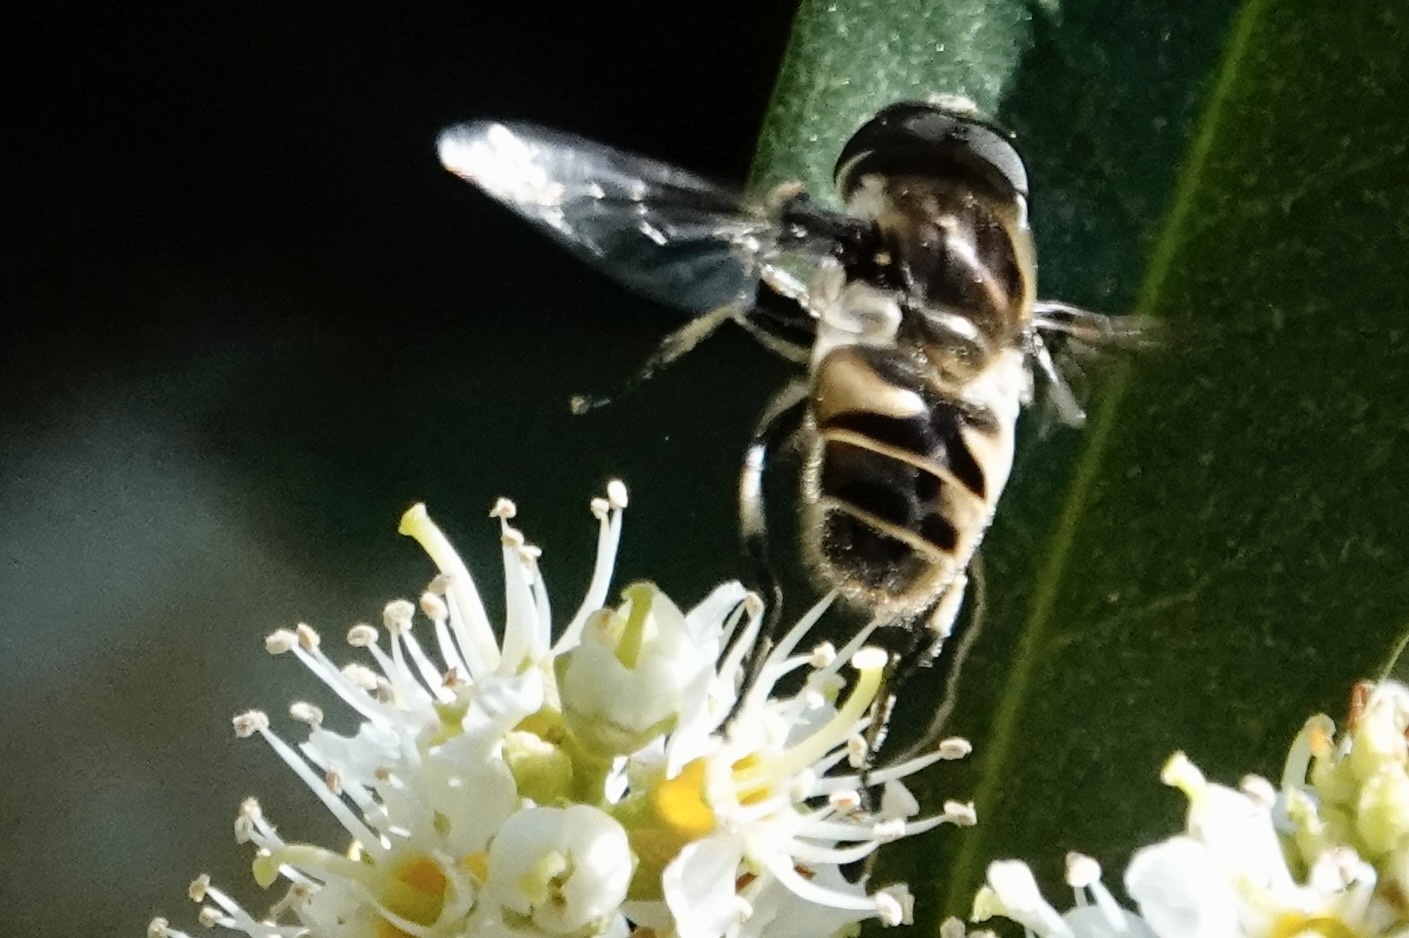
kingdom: Animalia
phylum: Arthropoda
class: Insecta
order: Diptera
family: Syrphidae
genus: Eristalis
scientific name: Eristalis dimidiata
